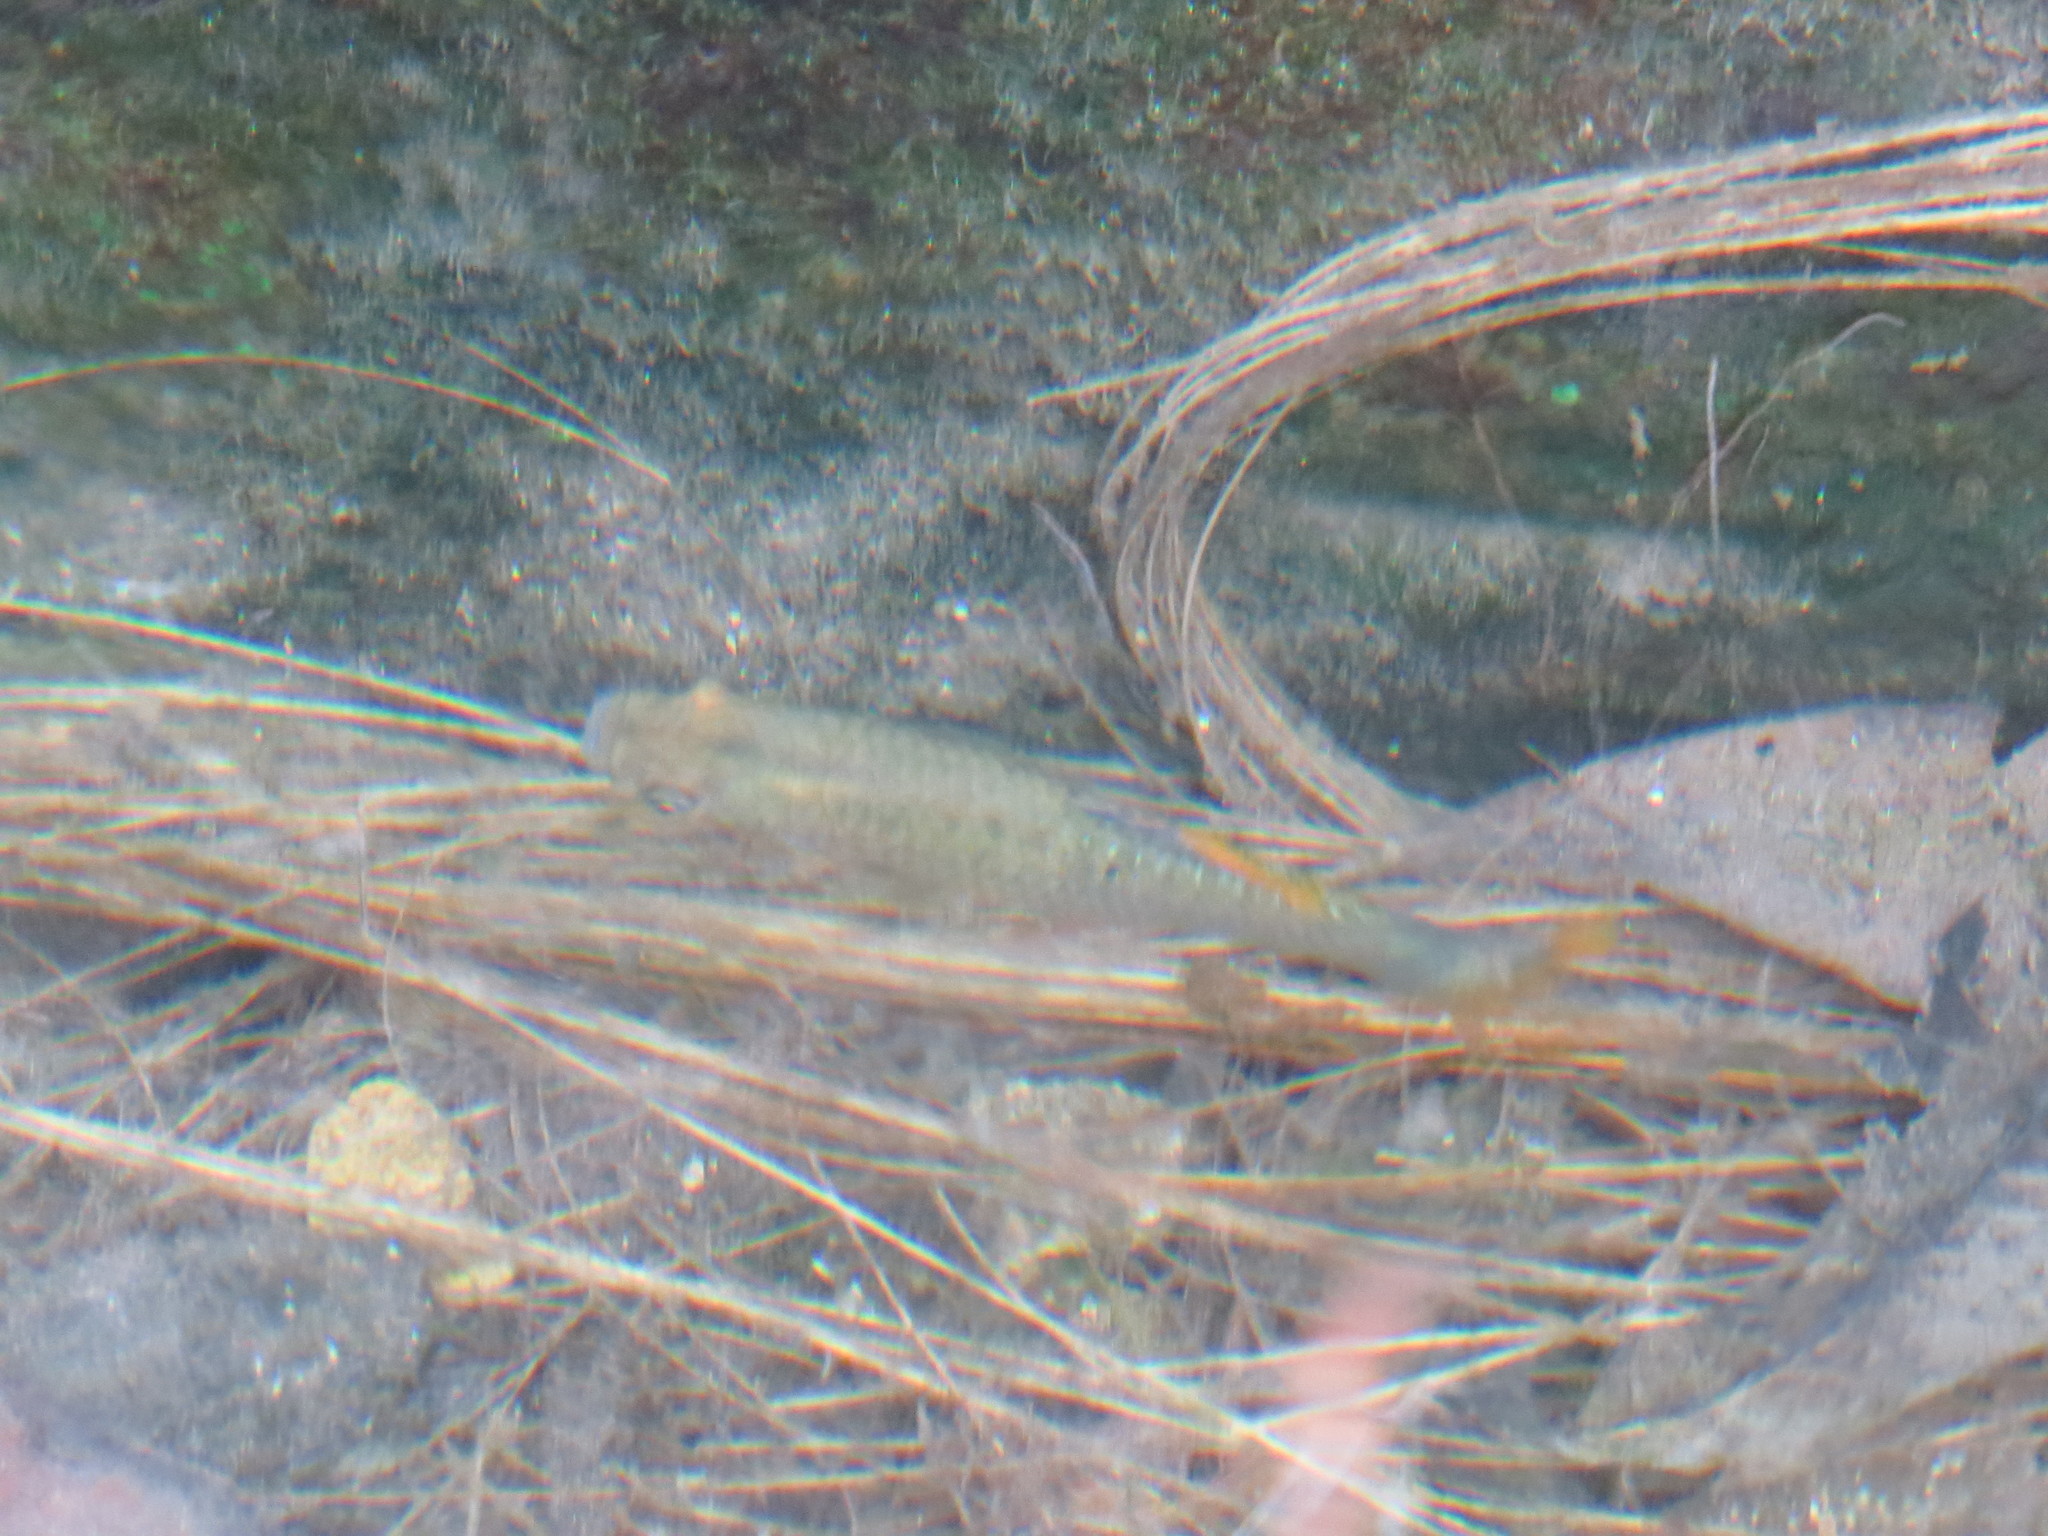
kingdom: Animalia
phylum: Chordata
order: Cyprinodontiformes
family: Poeciliidae
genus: Poecilia
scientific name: Poecilia maylandi
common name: Balsas molly
